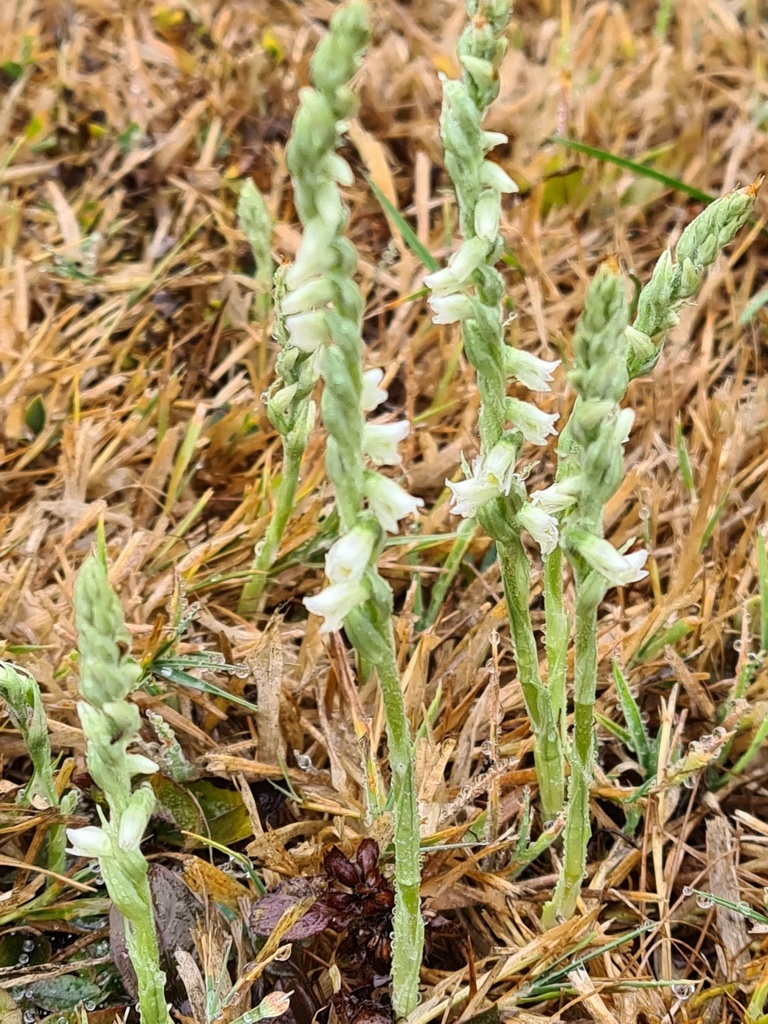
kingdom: Plantae
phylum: Tracheophyta
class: Liliopsida
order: Asparagales
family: Orchidaceae
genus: Spiranthes
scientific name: Spiranthes spiralis
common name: Autumn lady's-tresses
